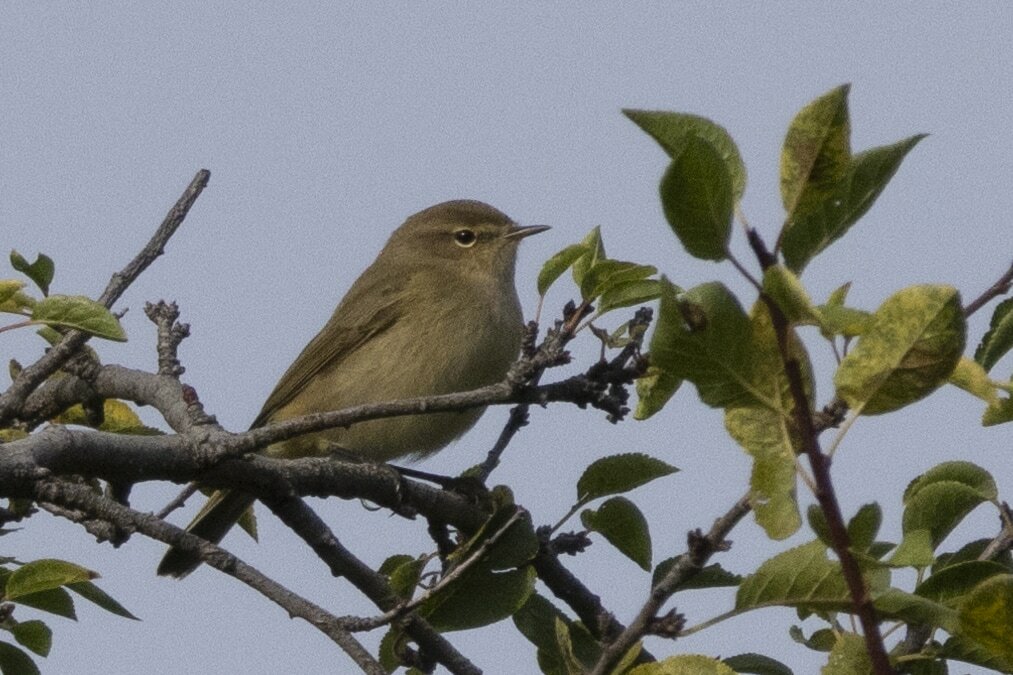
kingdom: Animalia
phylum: Chordata
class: Aves
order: Passeriformes
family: Phylloscopidae
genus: Phylloscopus
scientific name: Phylloscopus collybita
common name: Common chiffchaff
